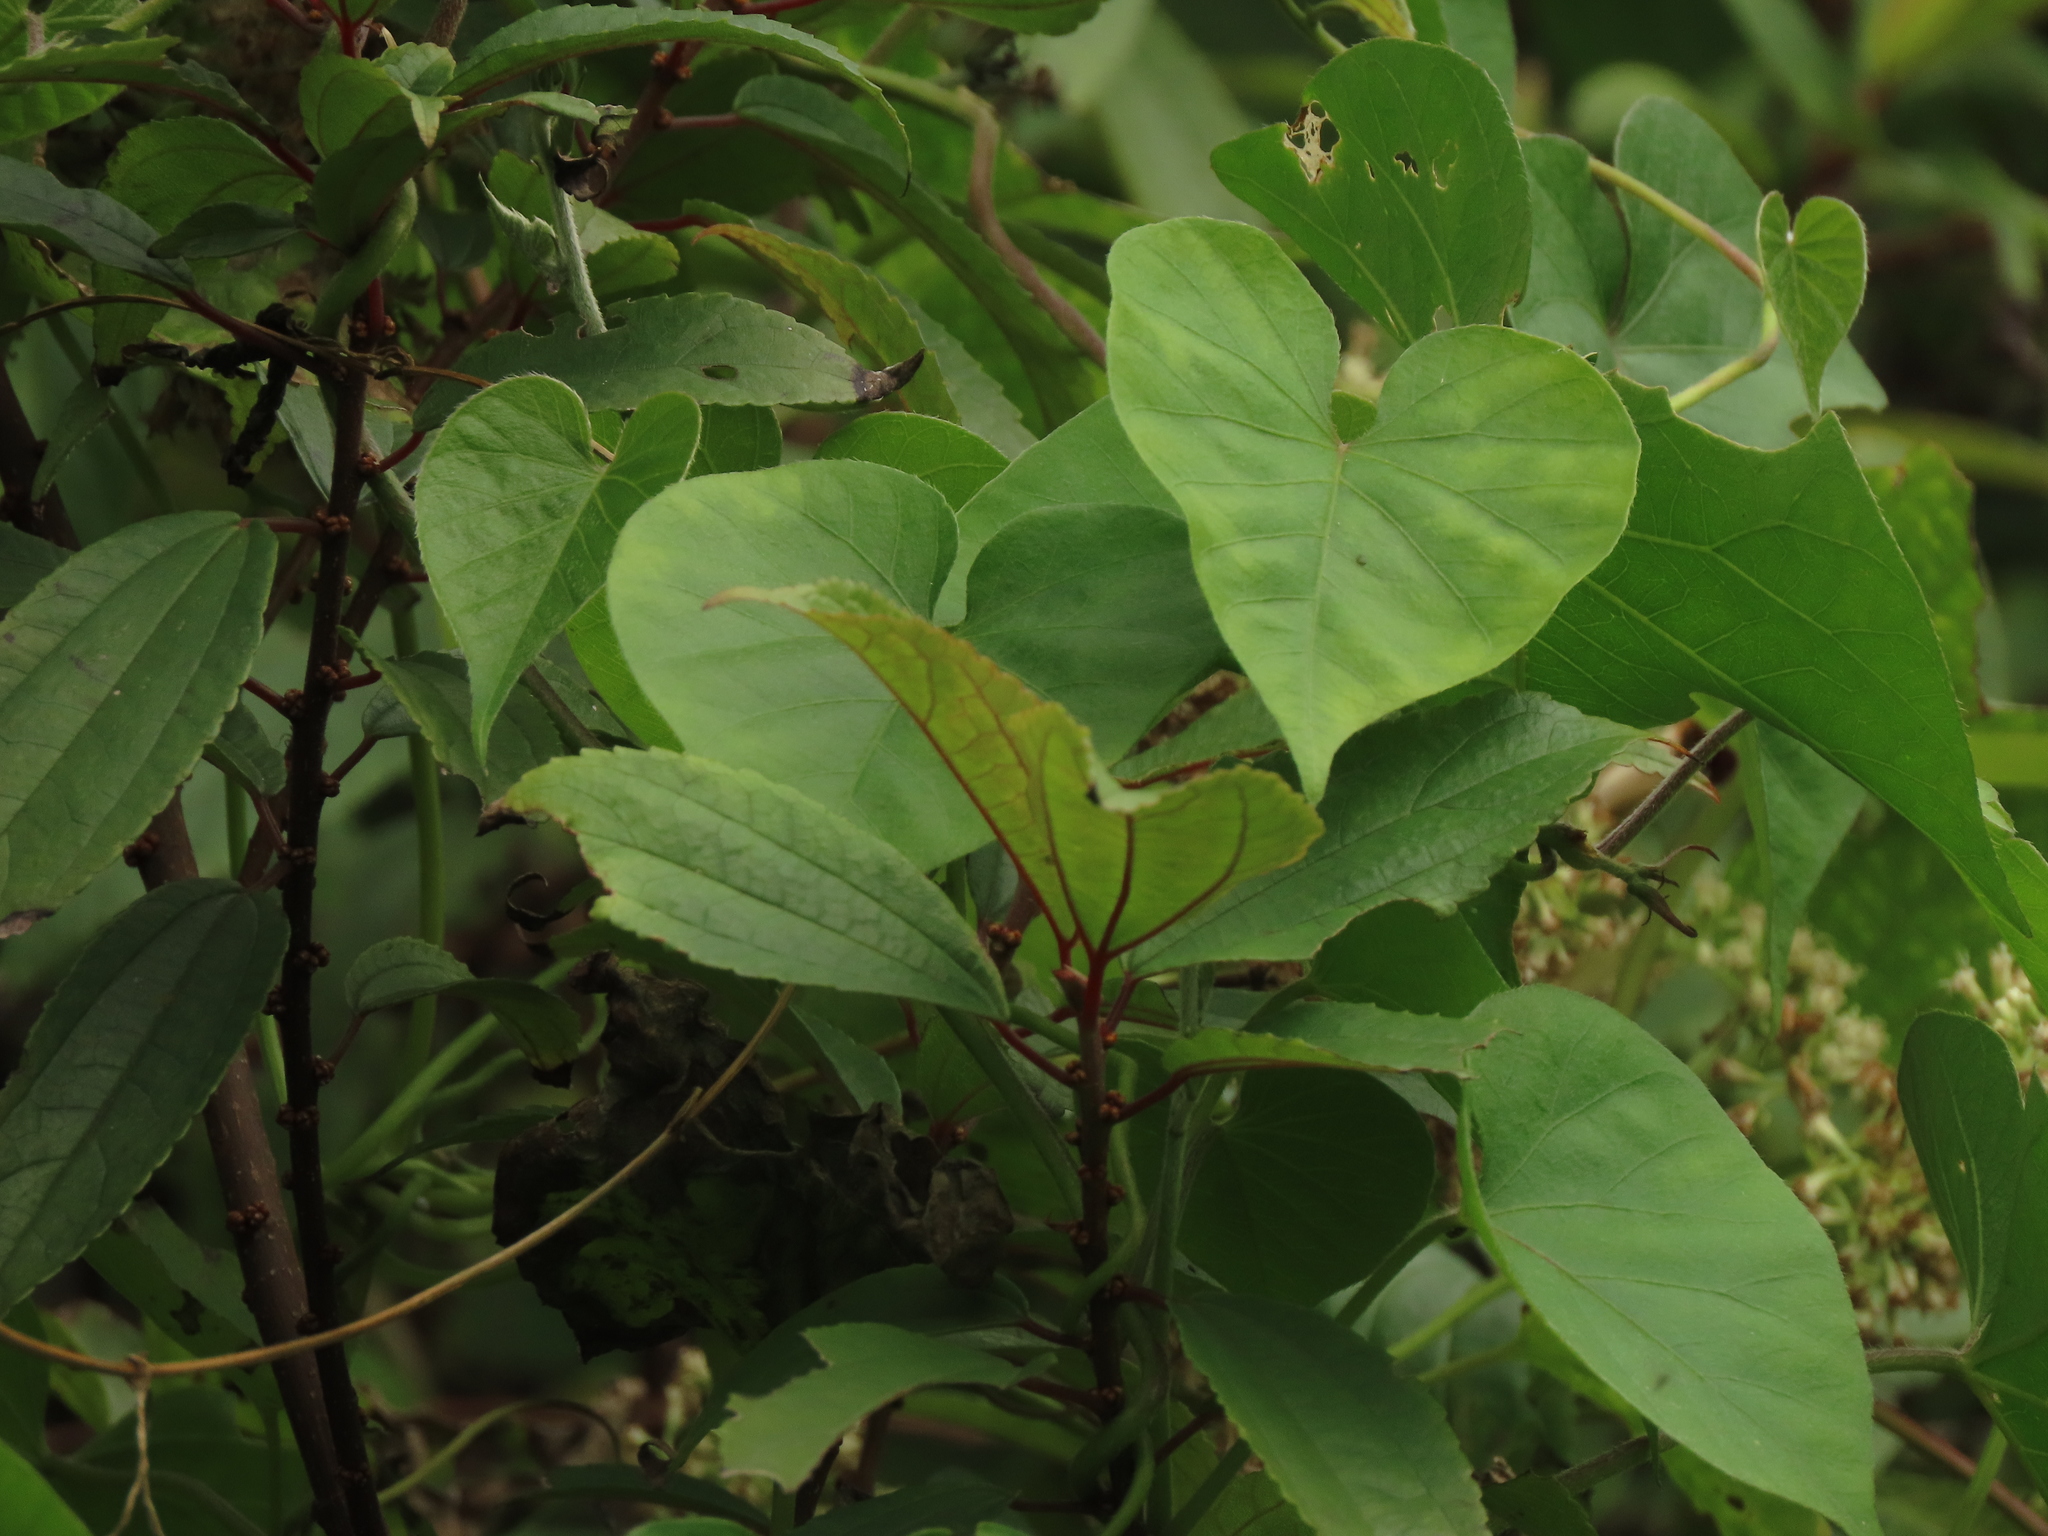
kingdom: Plantae
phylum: Tracheophyta
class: Magnoliopsida
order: Solanales
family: Convolvulaceae
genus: Ipomoea
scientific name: Ipomoea indica
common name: Blue dawnflower
